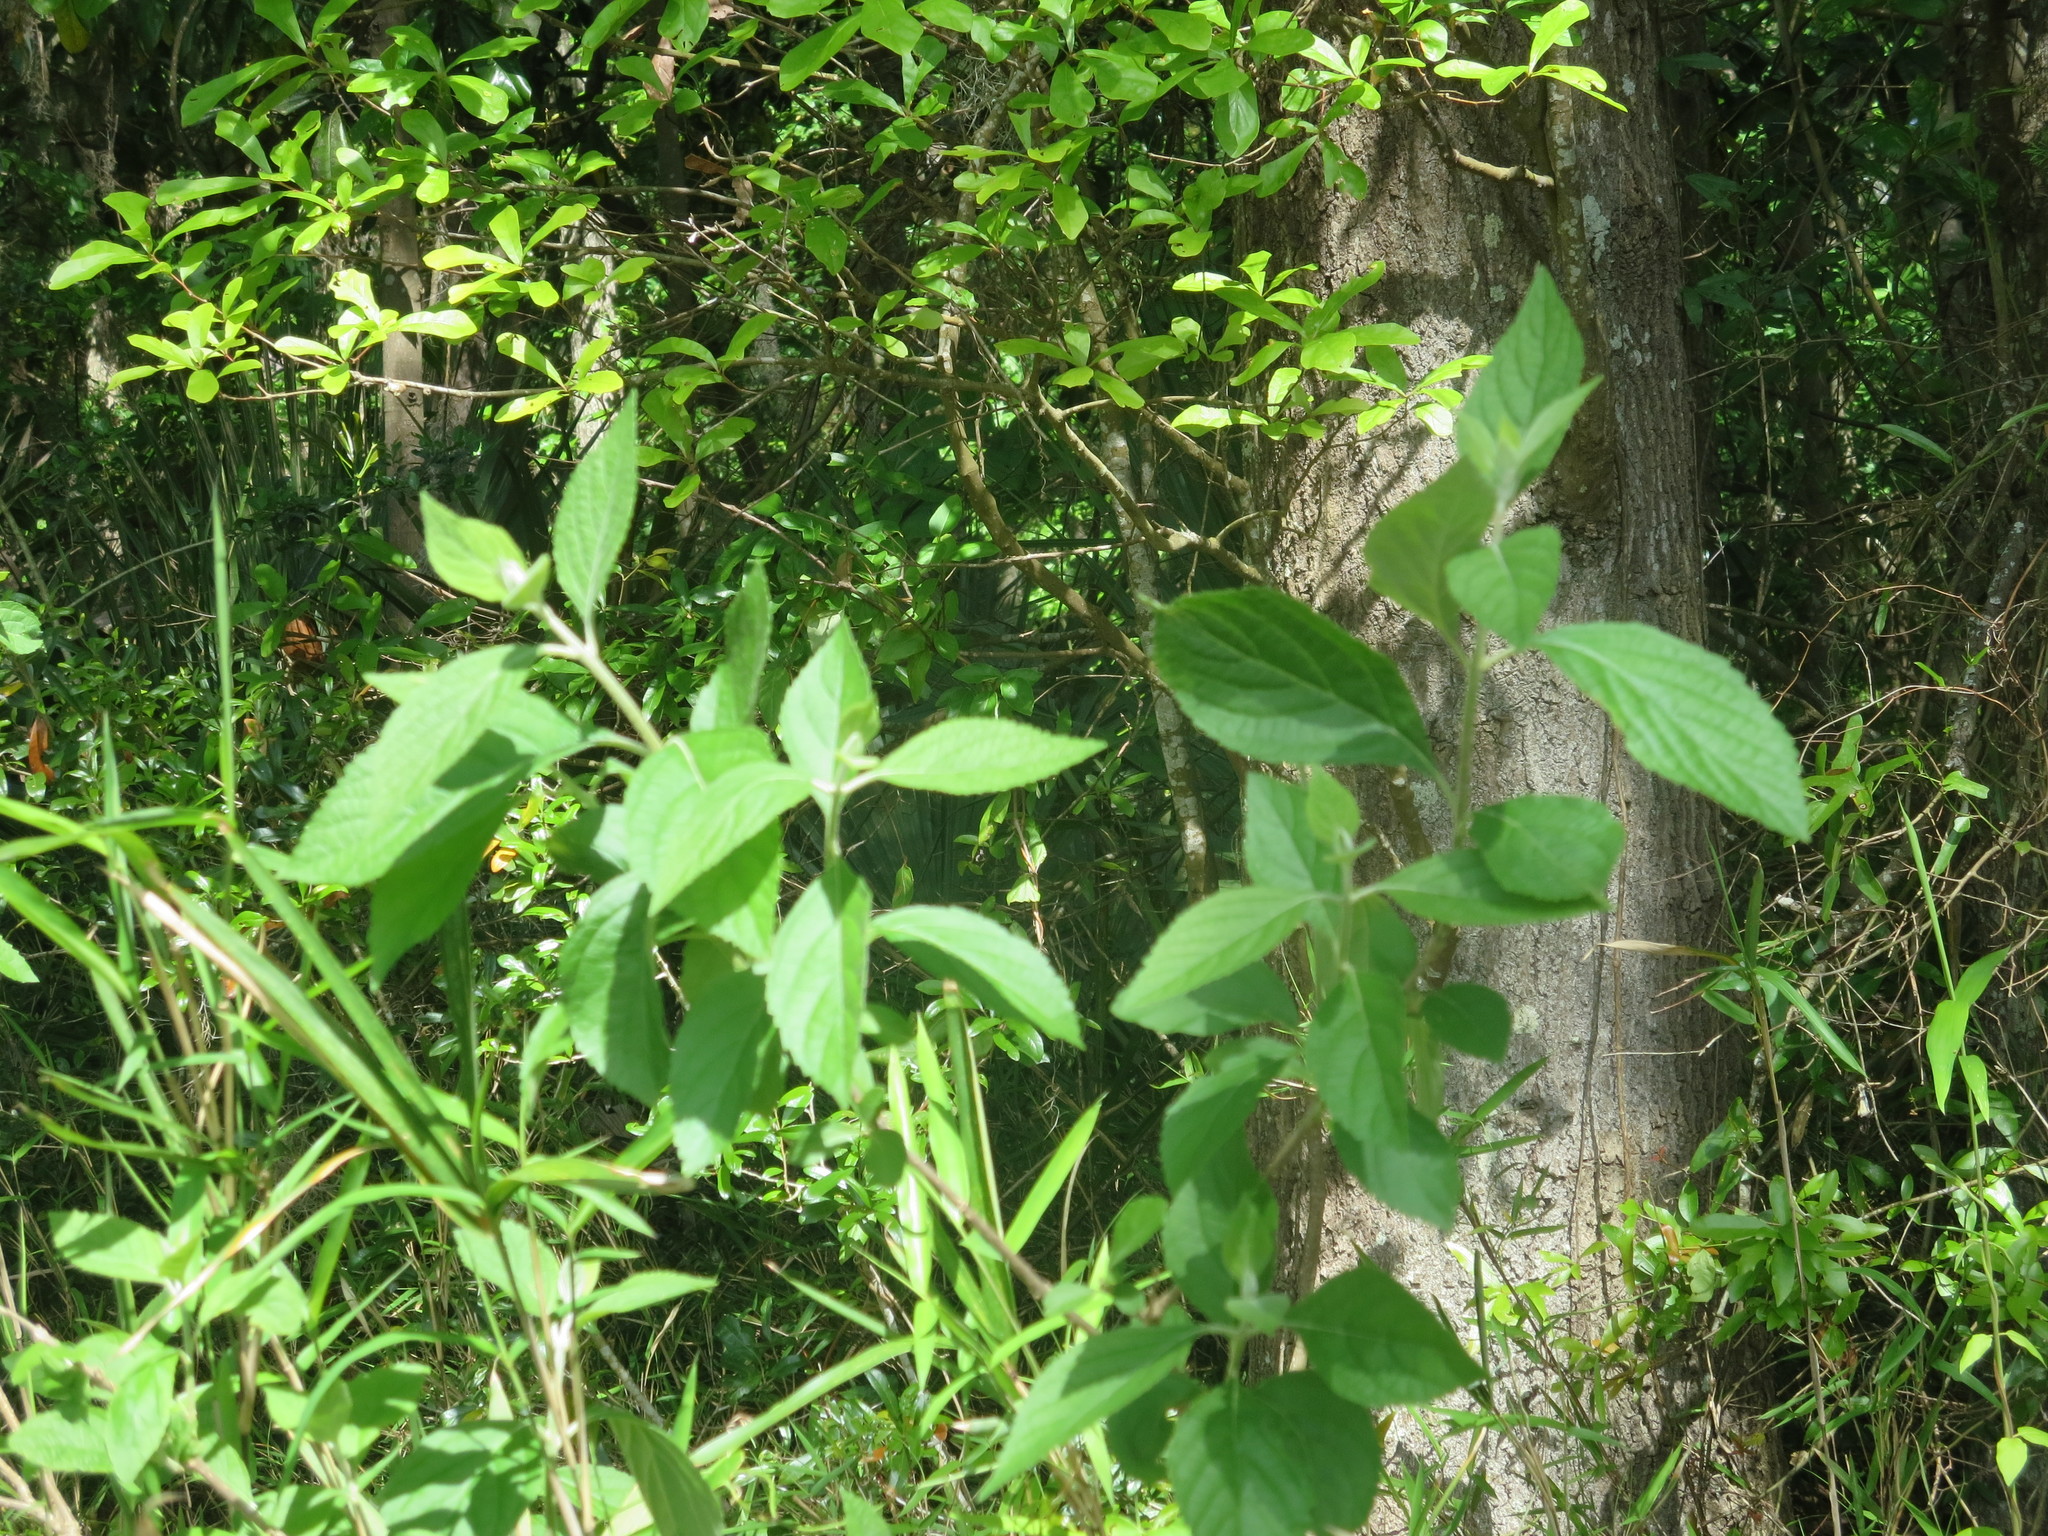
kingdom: Plantae
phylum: Tracheophyta
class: Magnoliopsida
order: Lamiales
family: Lamiaceae
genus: Callicarpa
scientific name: Callicarpa americana
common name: American beautyberry
